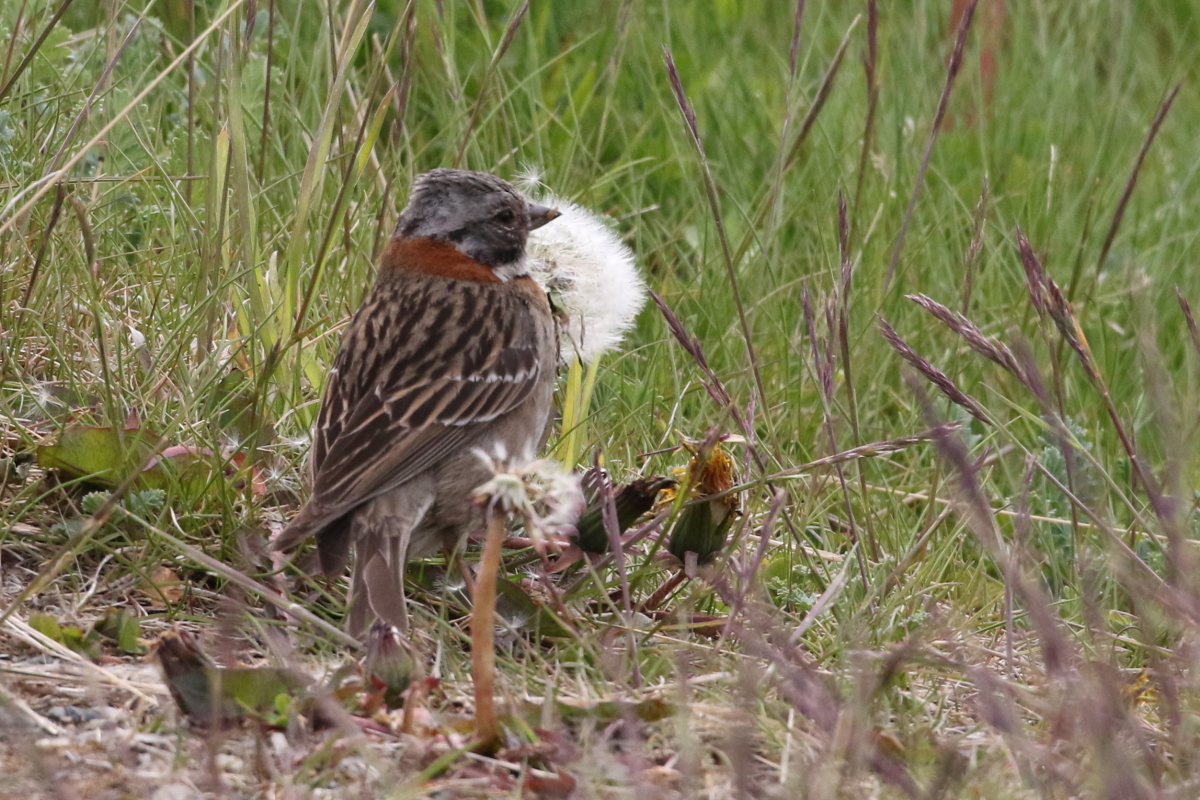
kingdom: Animalia
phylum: Chordata
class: Aves
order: Passeriformes
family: Passerellidae
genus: Zonotrichia
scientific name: Zonotrichia capensis
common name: Rufous-collared sparrow
